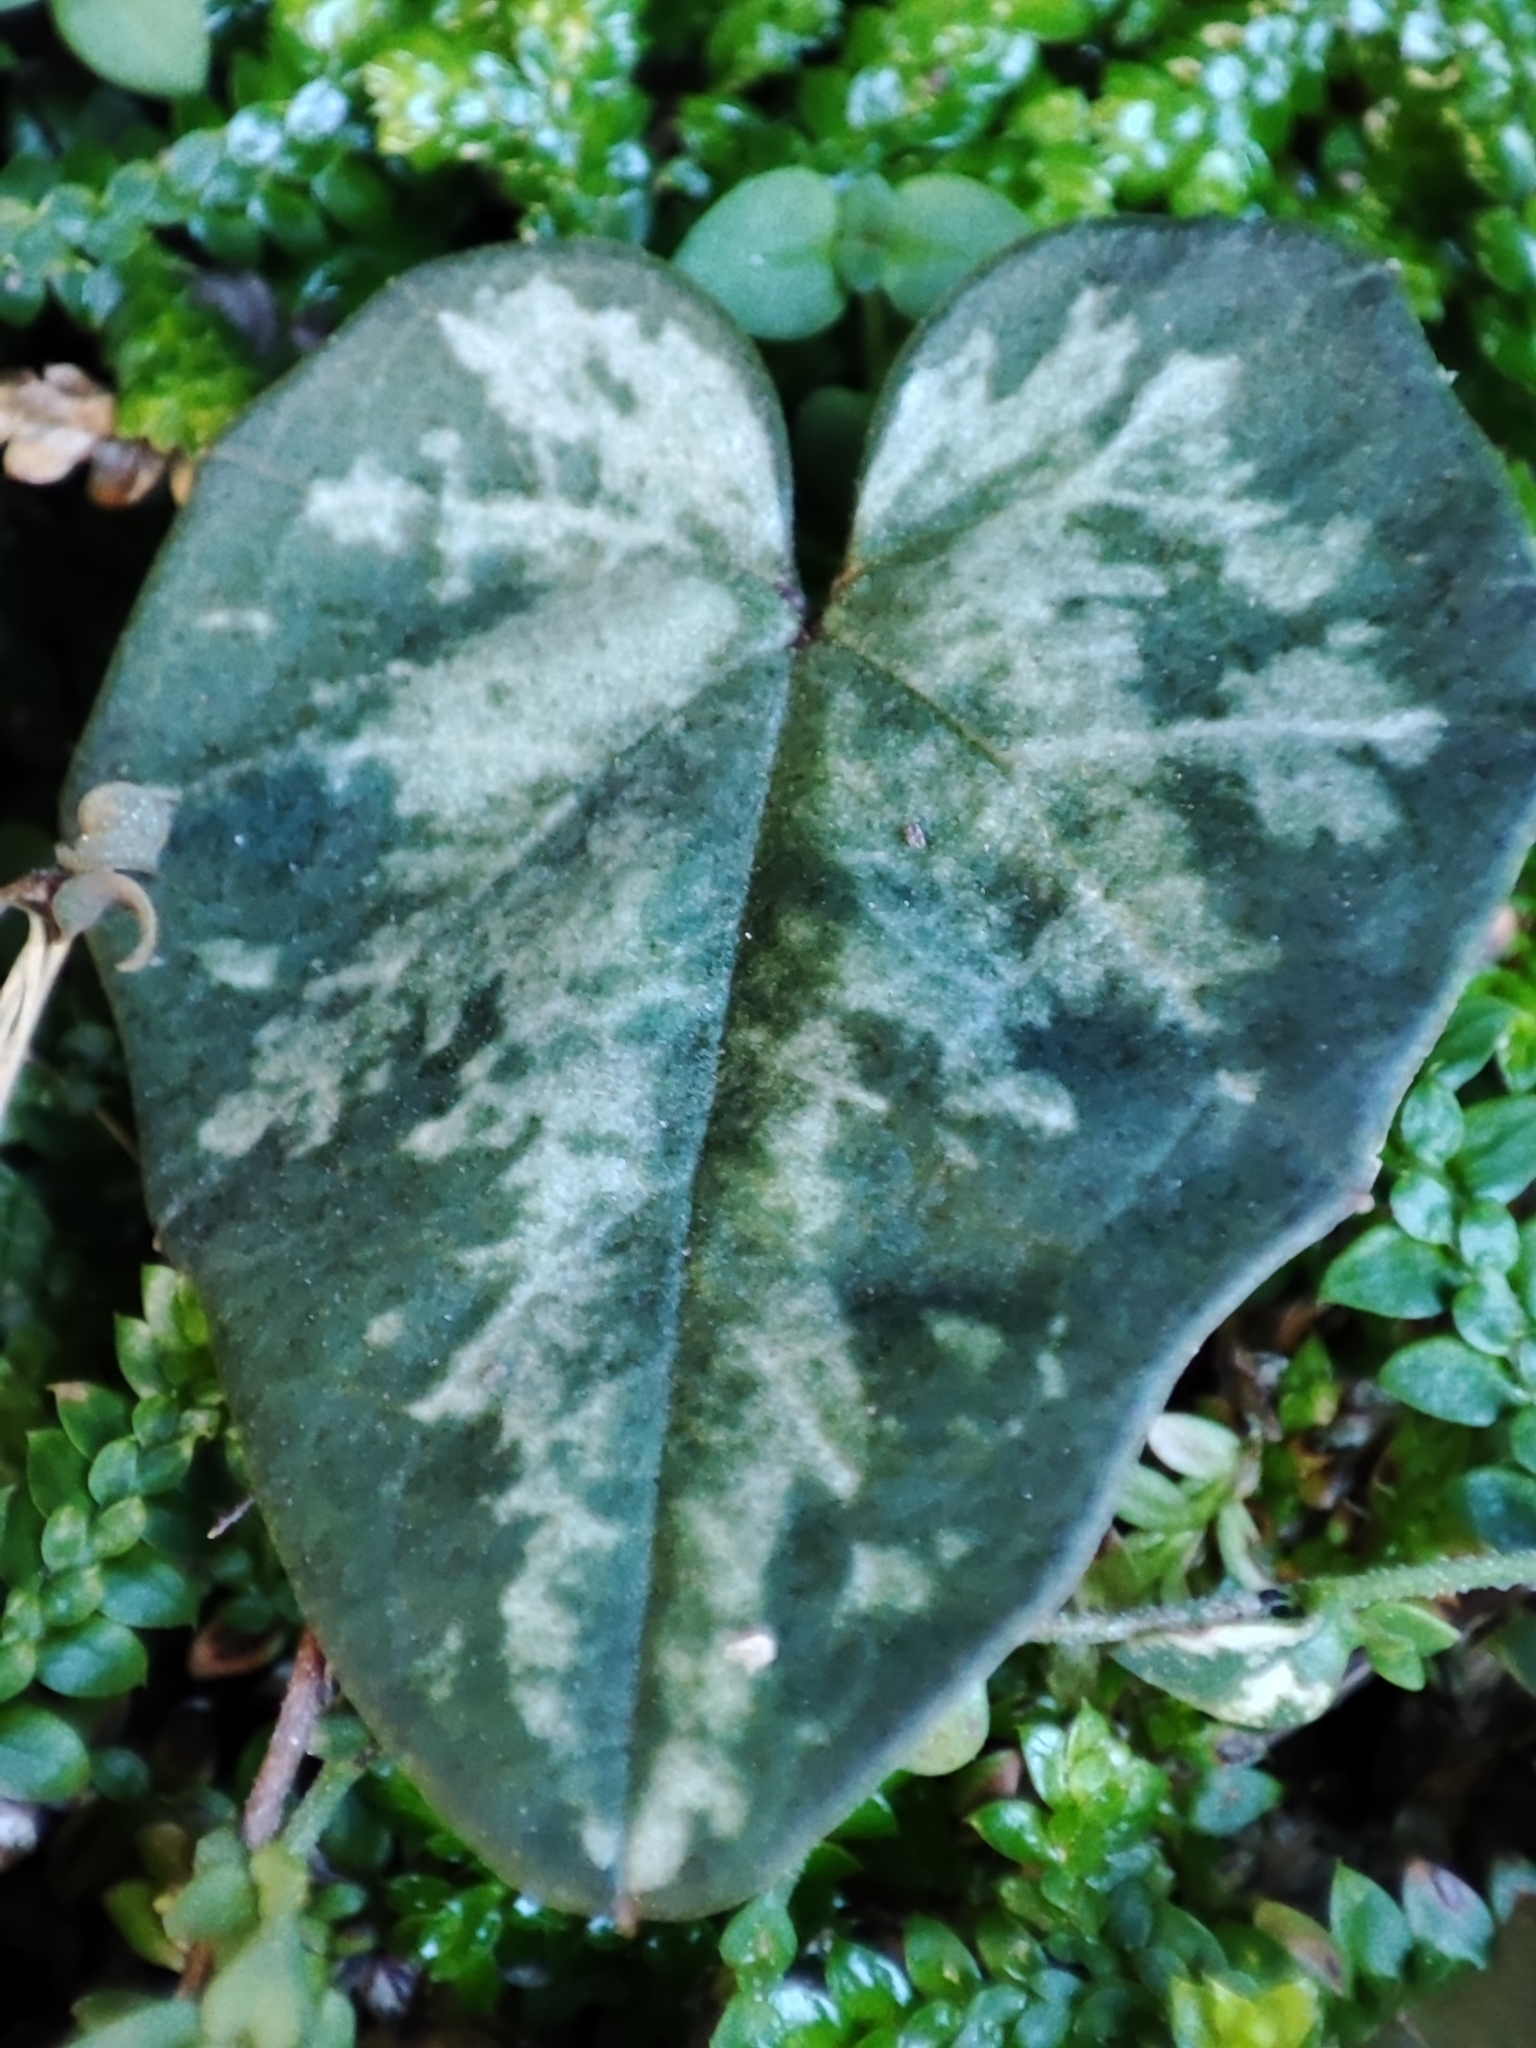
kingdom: Plantae
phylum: Tracheophyta
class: Magnoliopsida
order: Ericales
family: Primulaceae
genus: Cyclamen
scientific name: Cyclamen balearicum
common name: Majorca cyclamen
